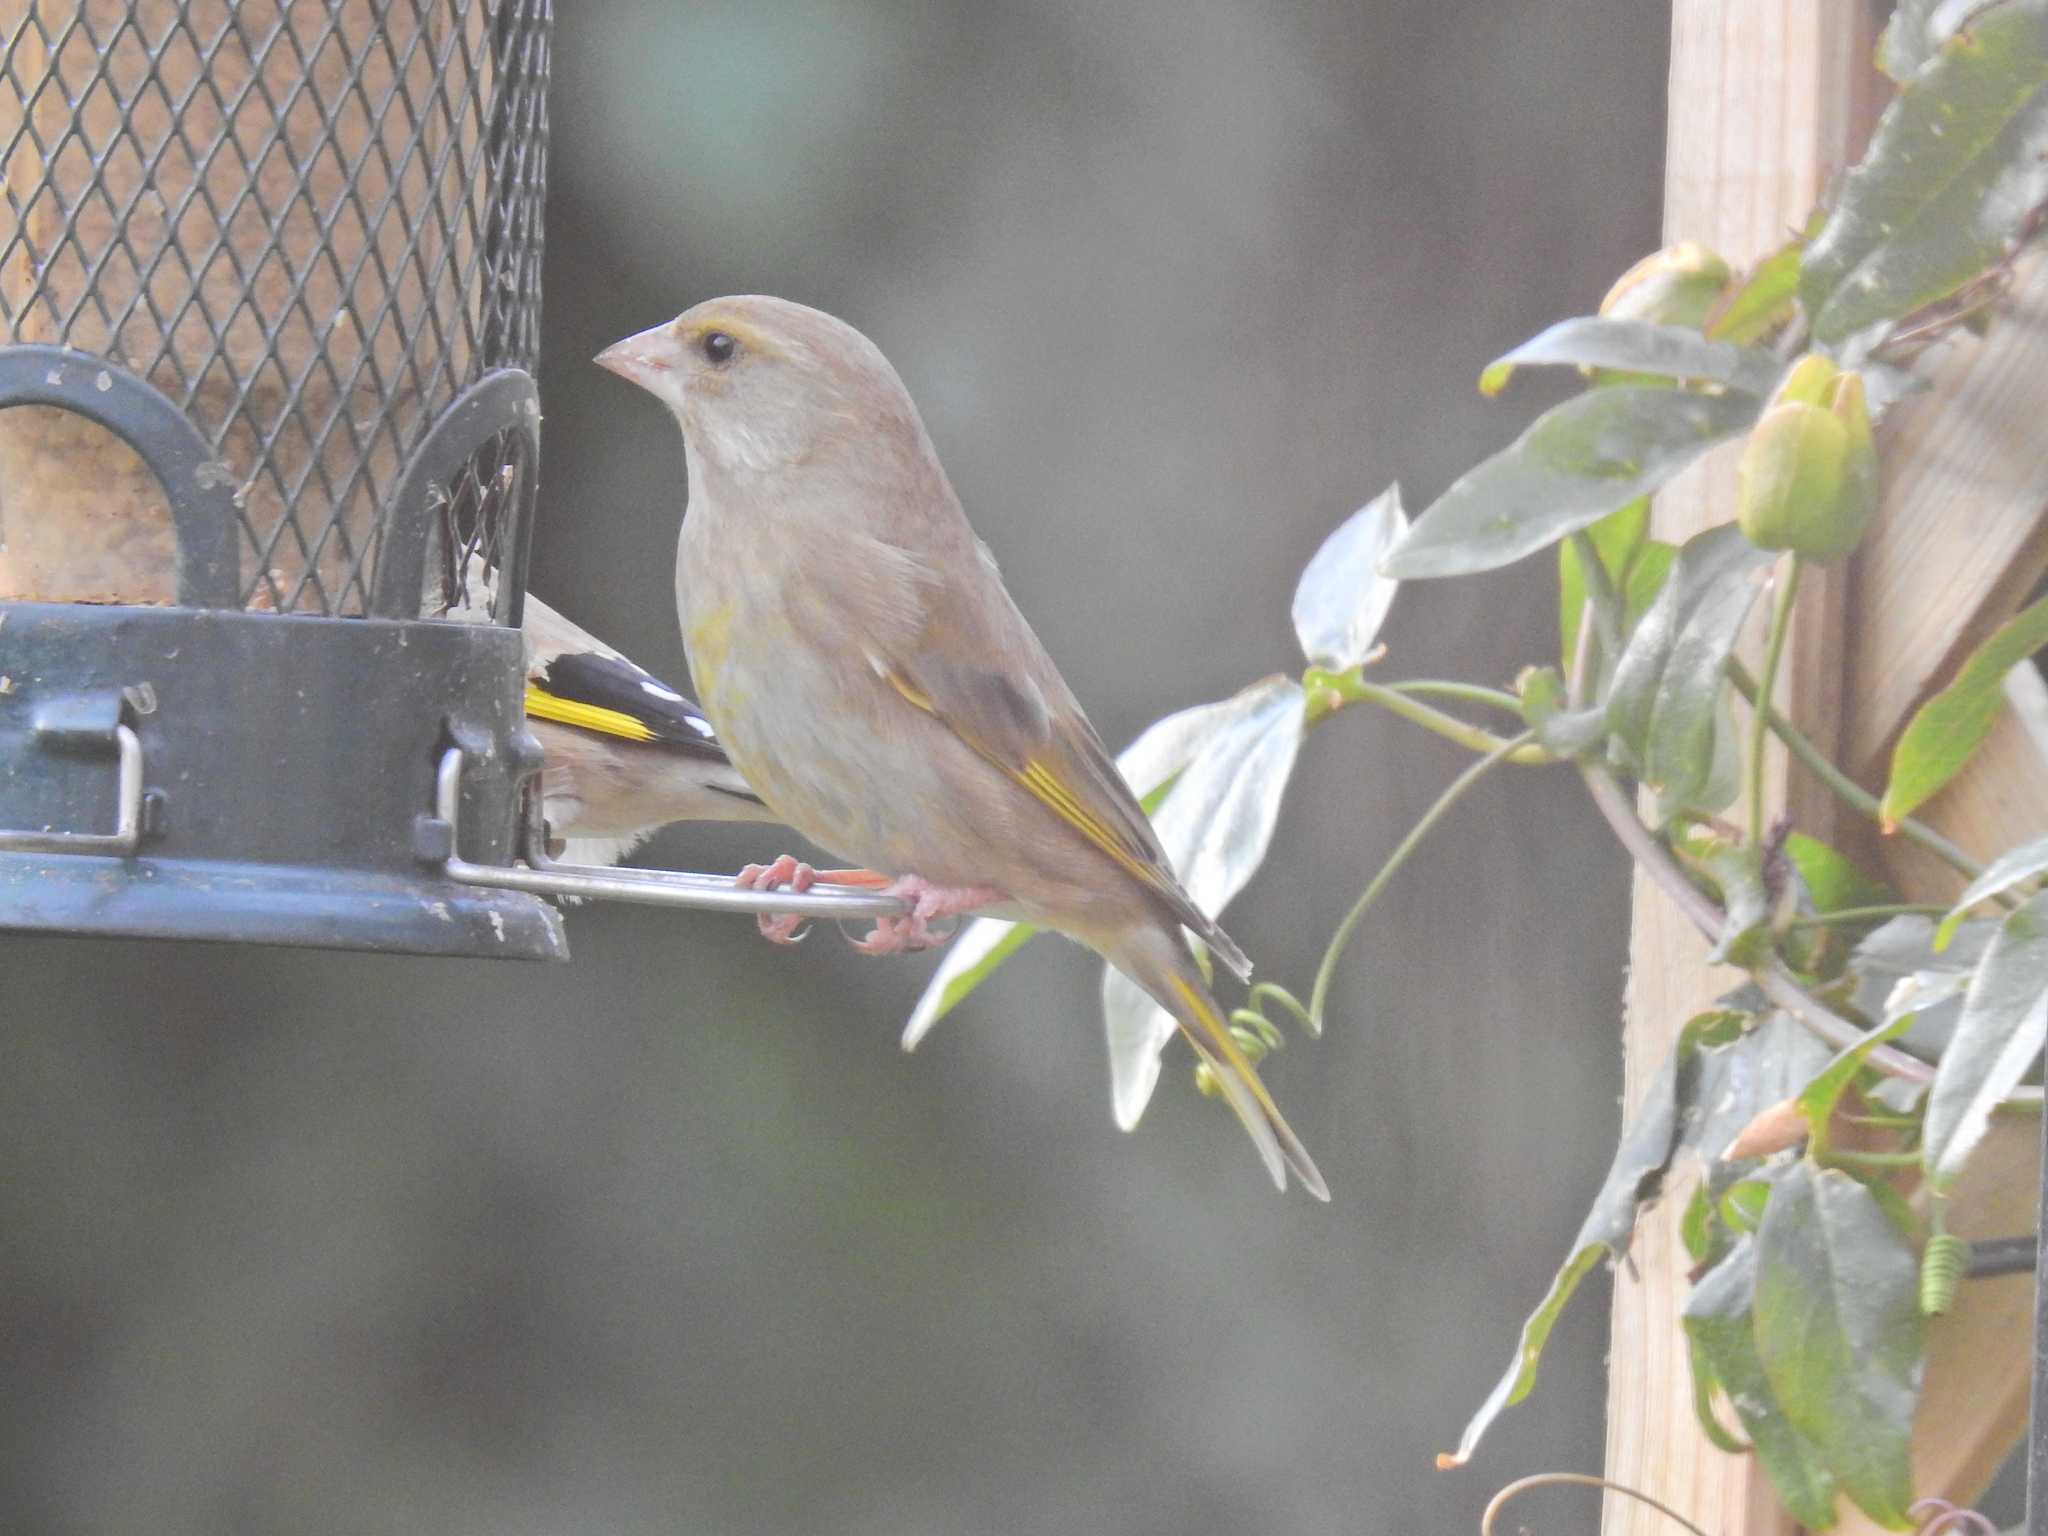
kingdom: Plantae
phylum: Tracheophyta
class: Liliopsida
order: Poales
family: Poaceae
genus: Chloris
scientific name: Chloris chloris
